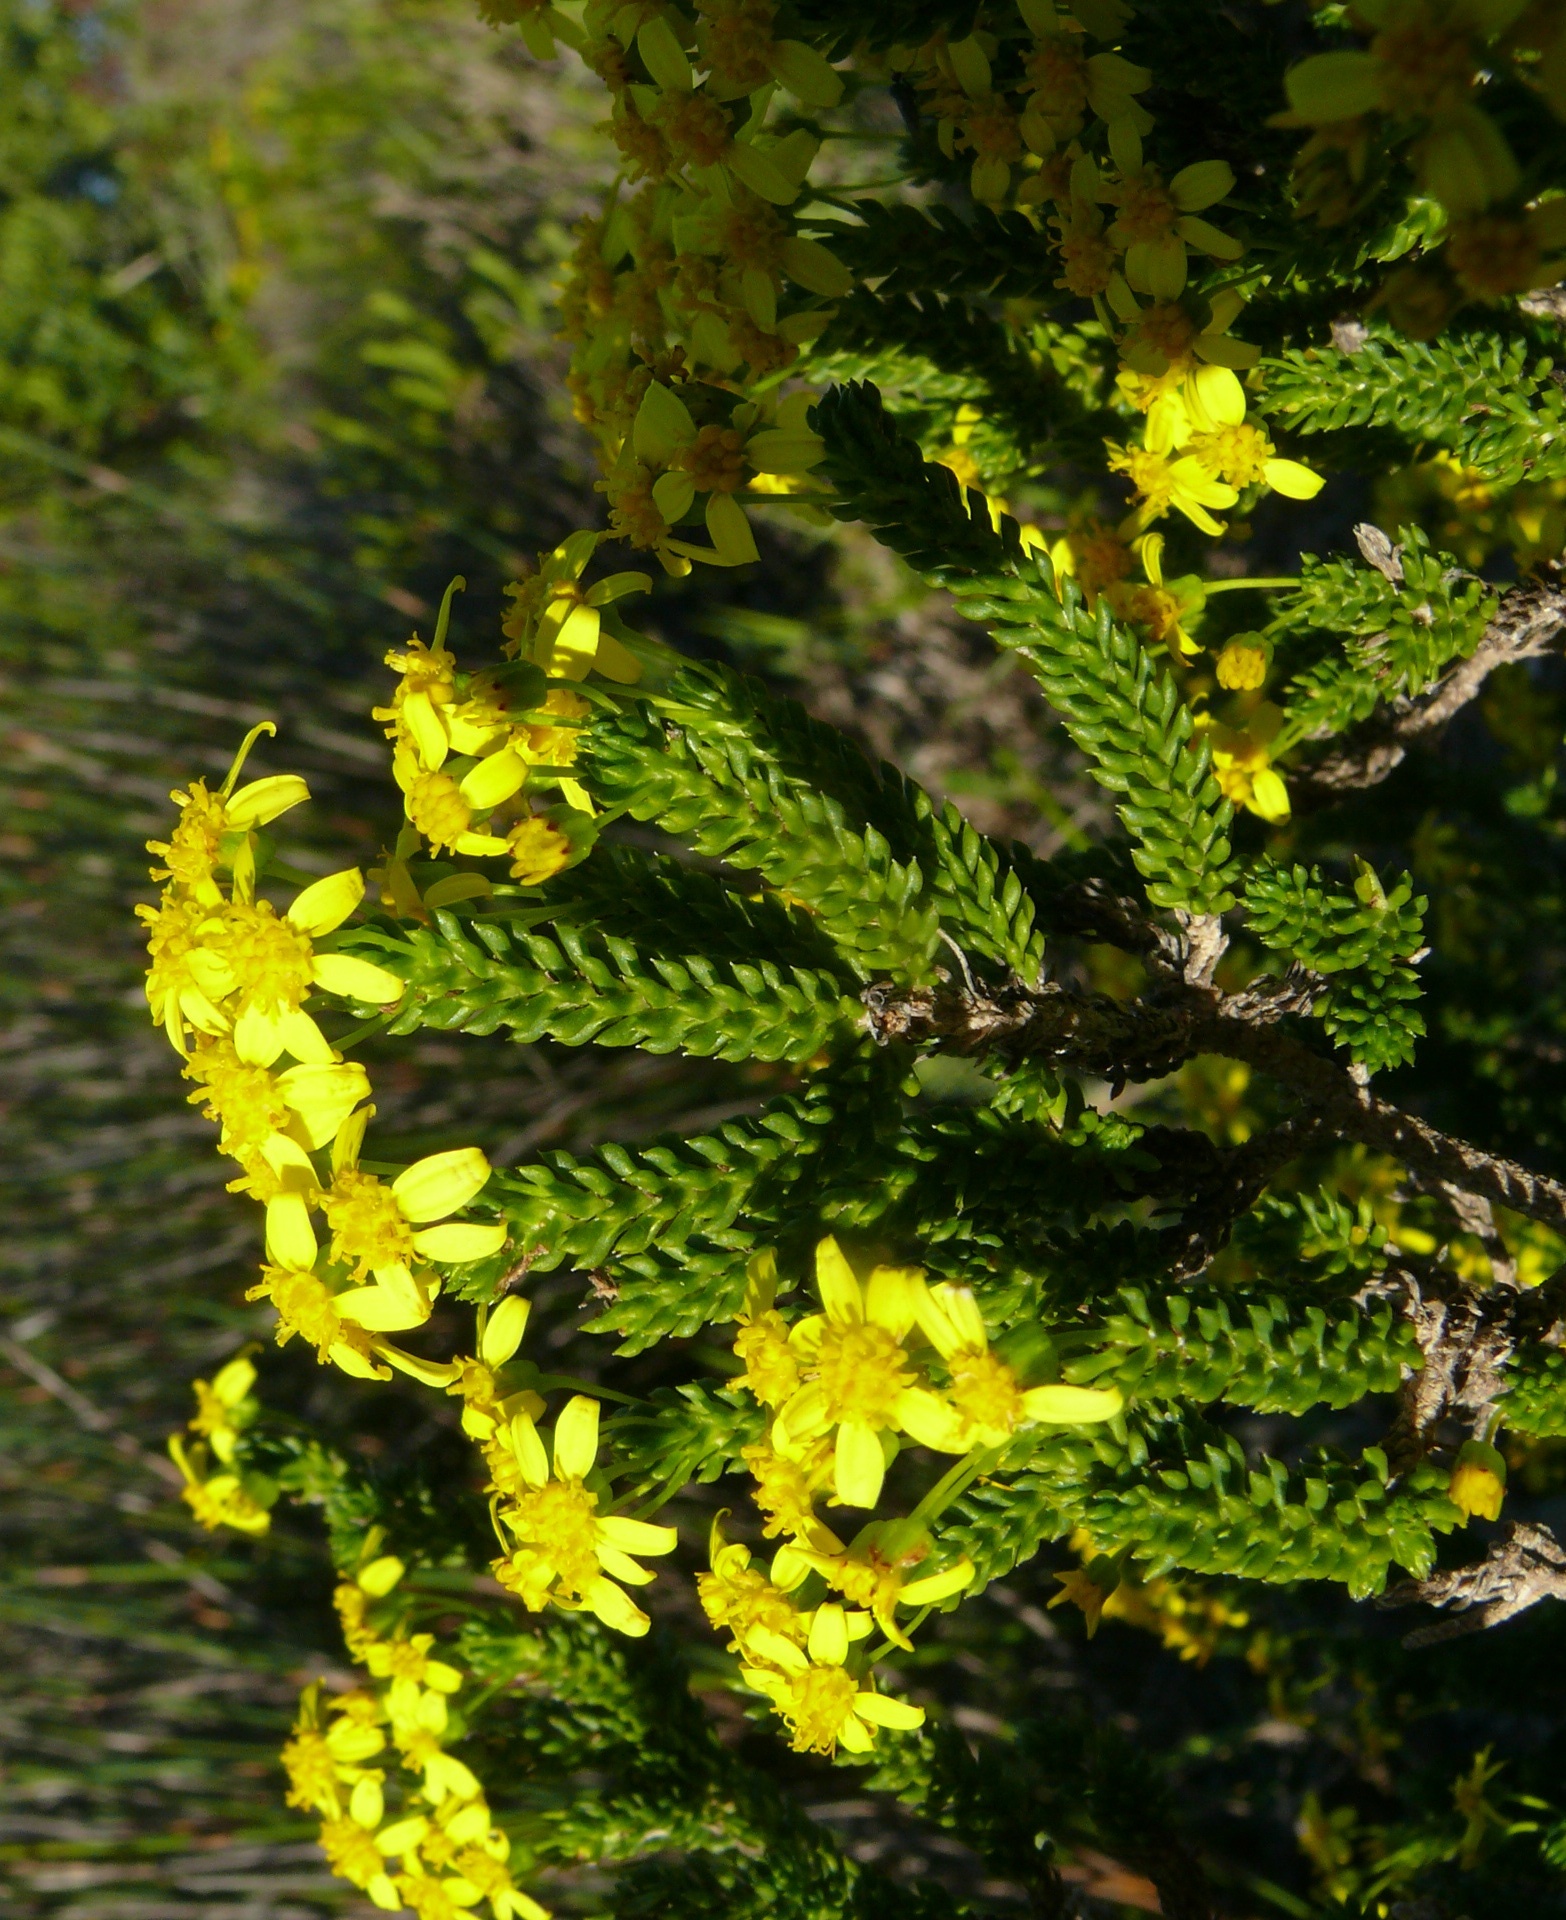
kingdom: Plantae
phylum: Tracheophyta
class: Magnoliopsida
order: Asterales
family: Asteraceae
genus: Euryops
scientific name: Euryops muirii
